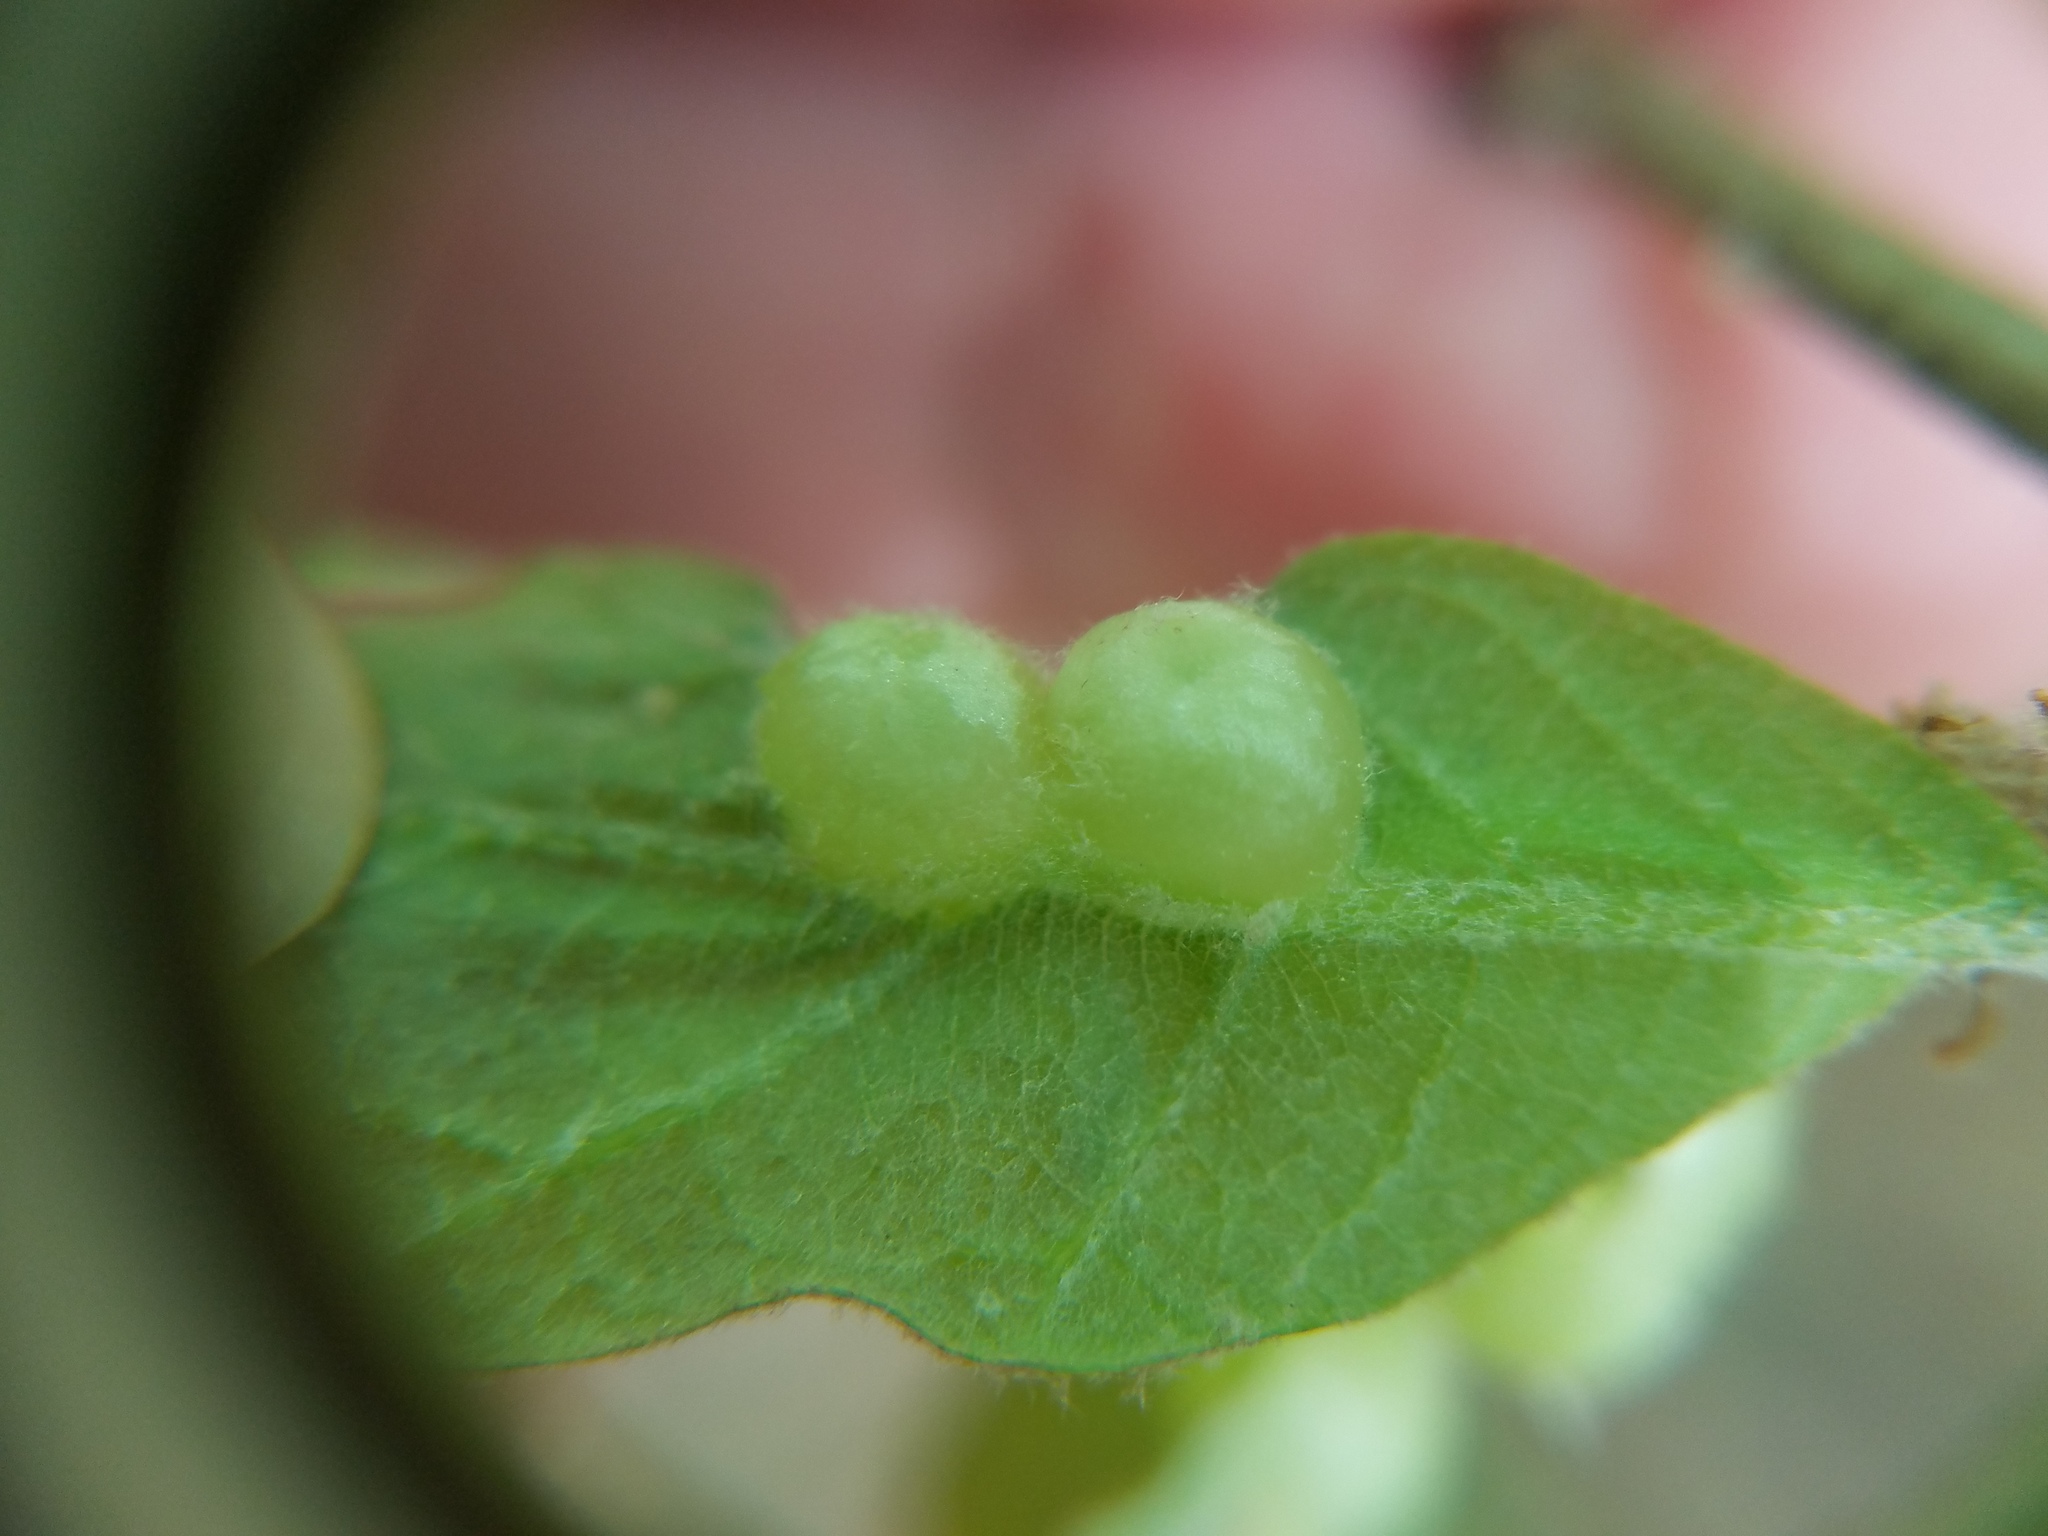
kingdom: Animalia
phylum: Arthropoda
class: Insecta
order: Hymenoptera
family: Cynipidae
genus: Neuroterus
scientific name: Neuroterus quercusirregularis
